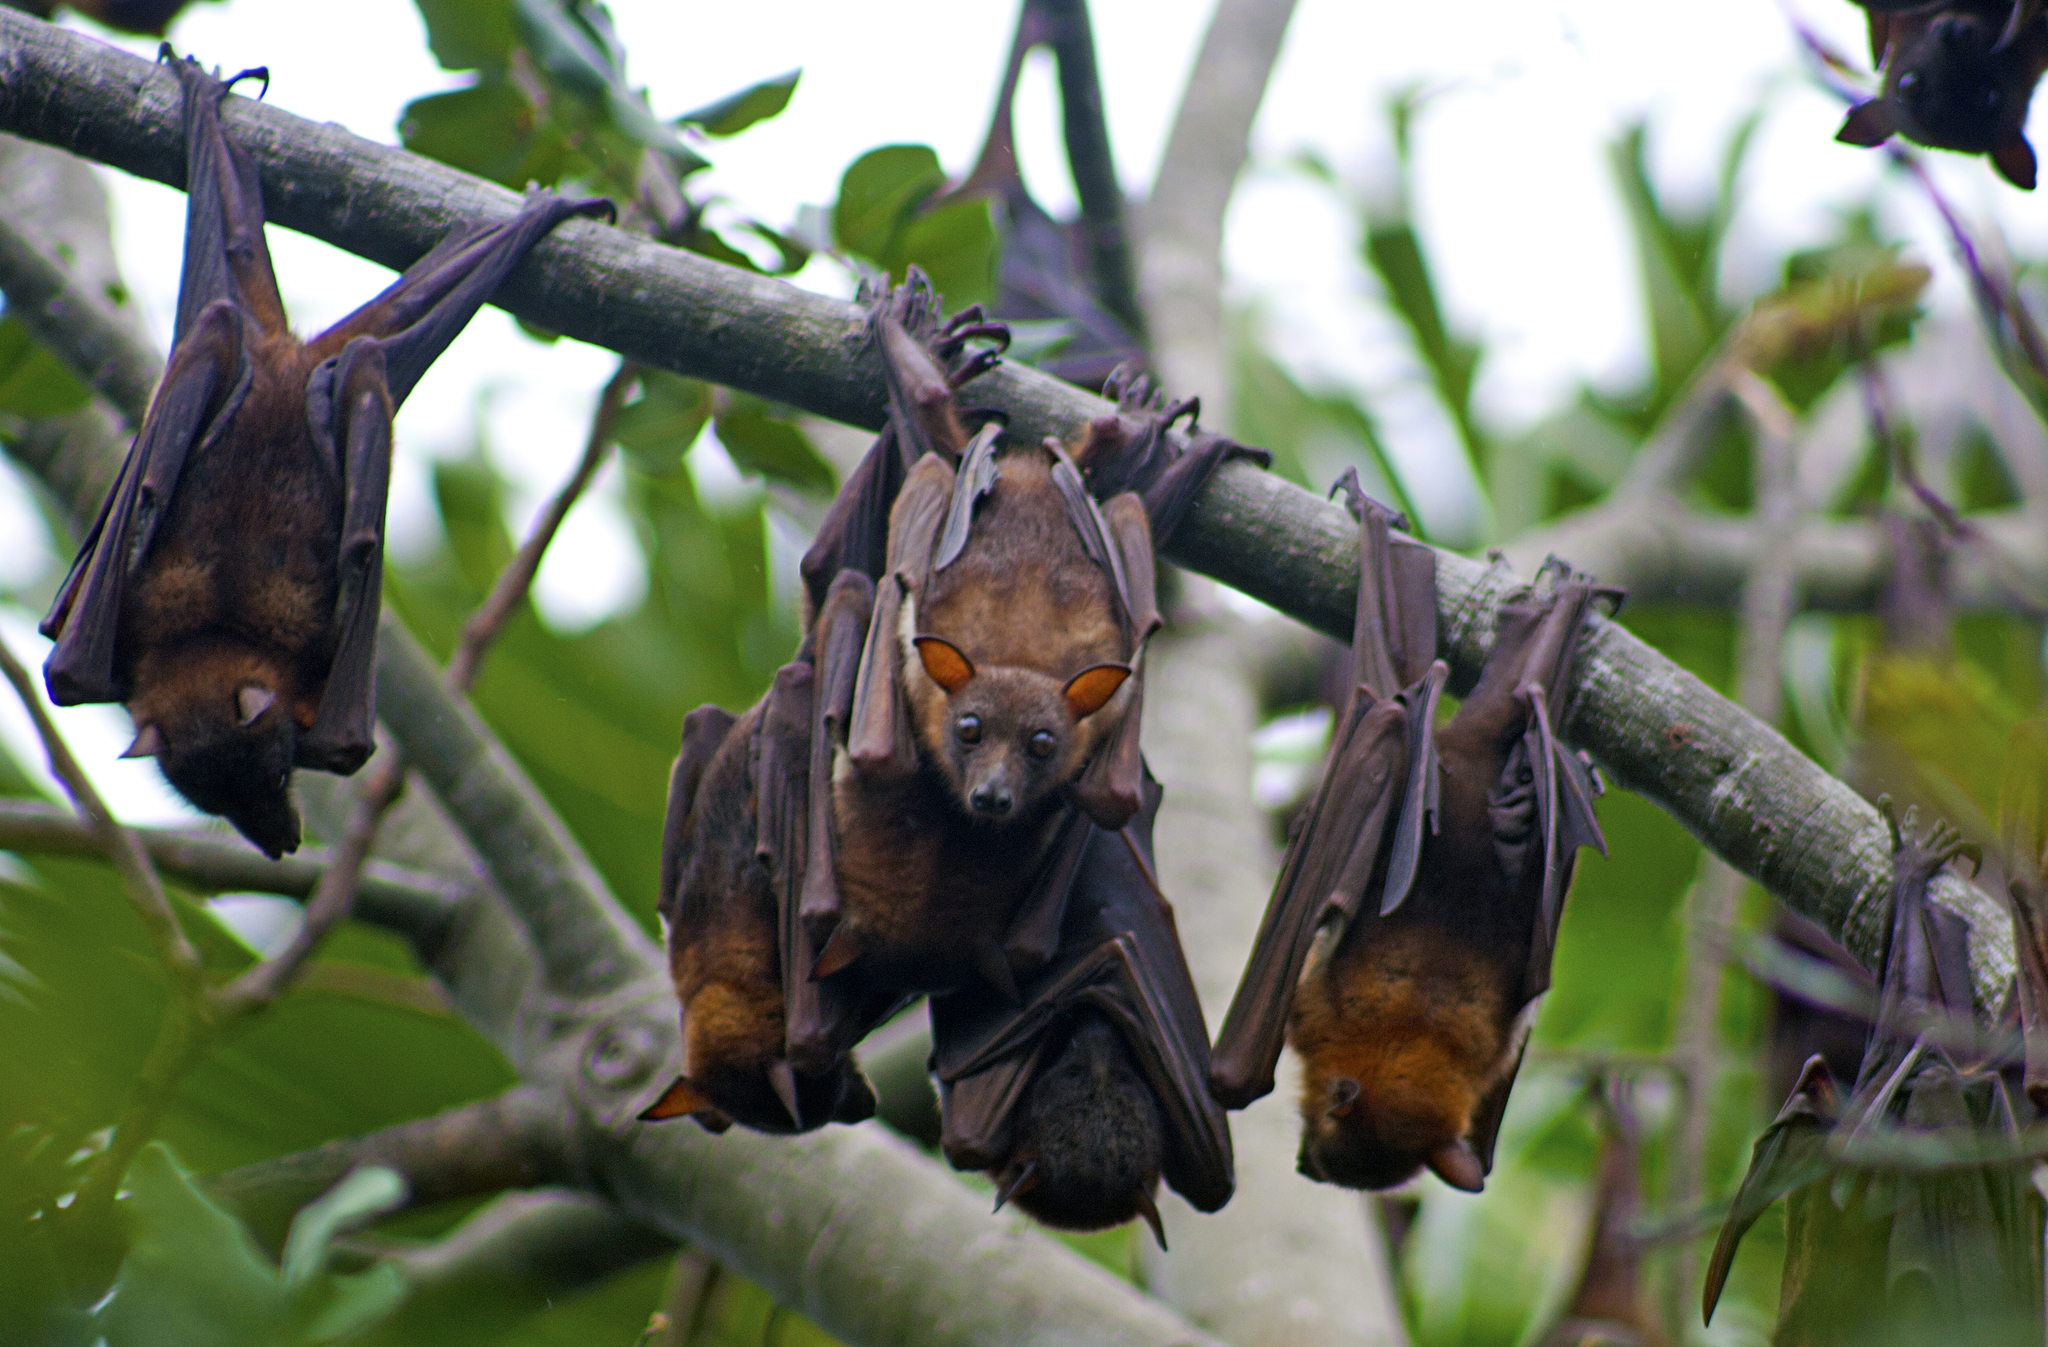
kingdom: Animalia
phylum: Chordata
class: Mammalia
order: Chiroptera
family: Pteropodidae
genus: Pteropus
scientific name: Pteropus scapulatus
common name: Little red flying fox
